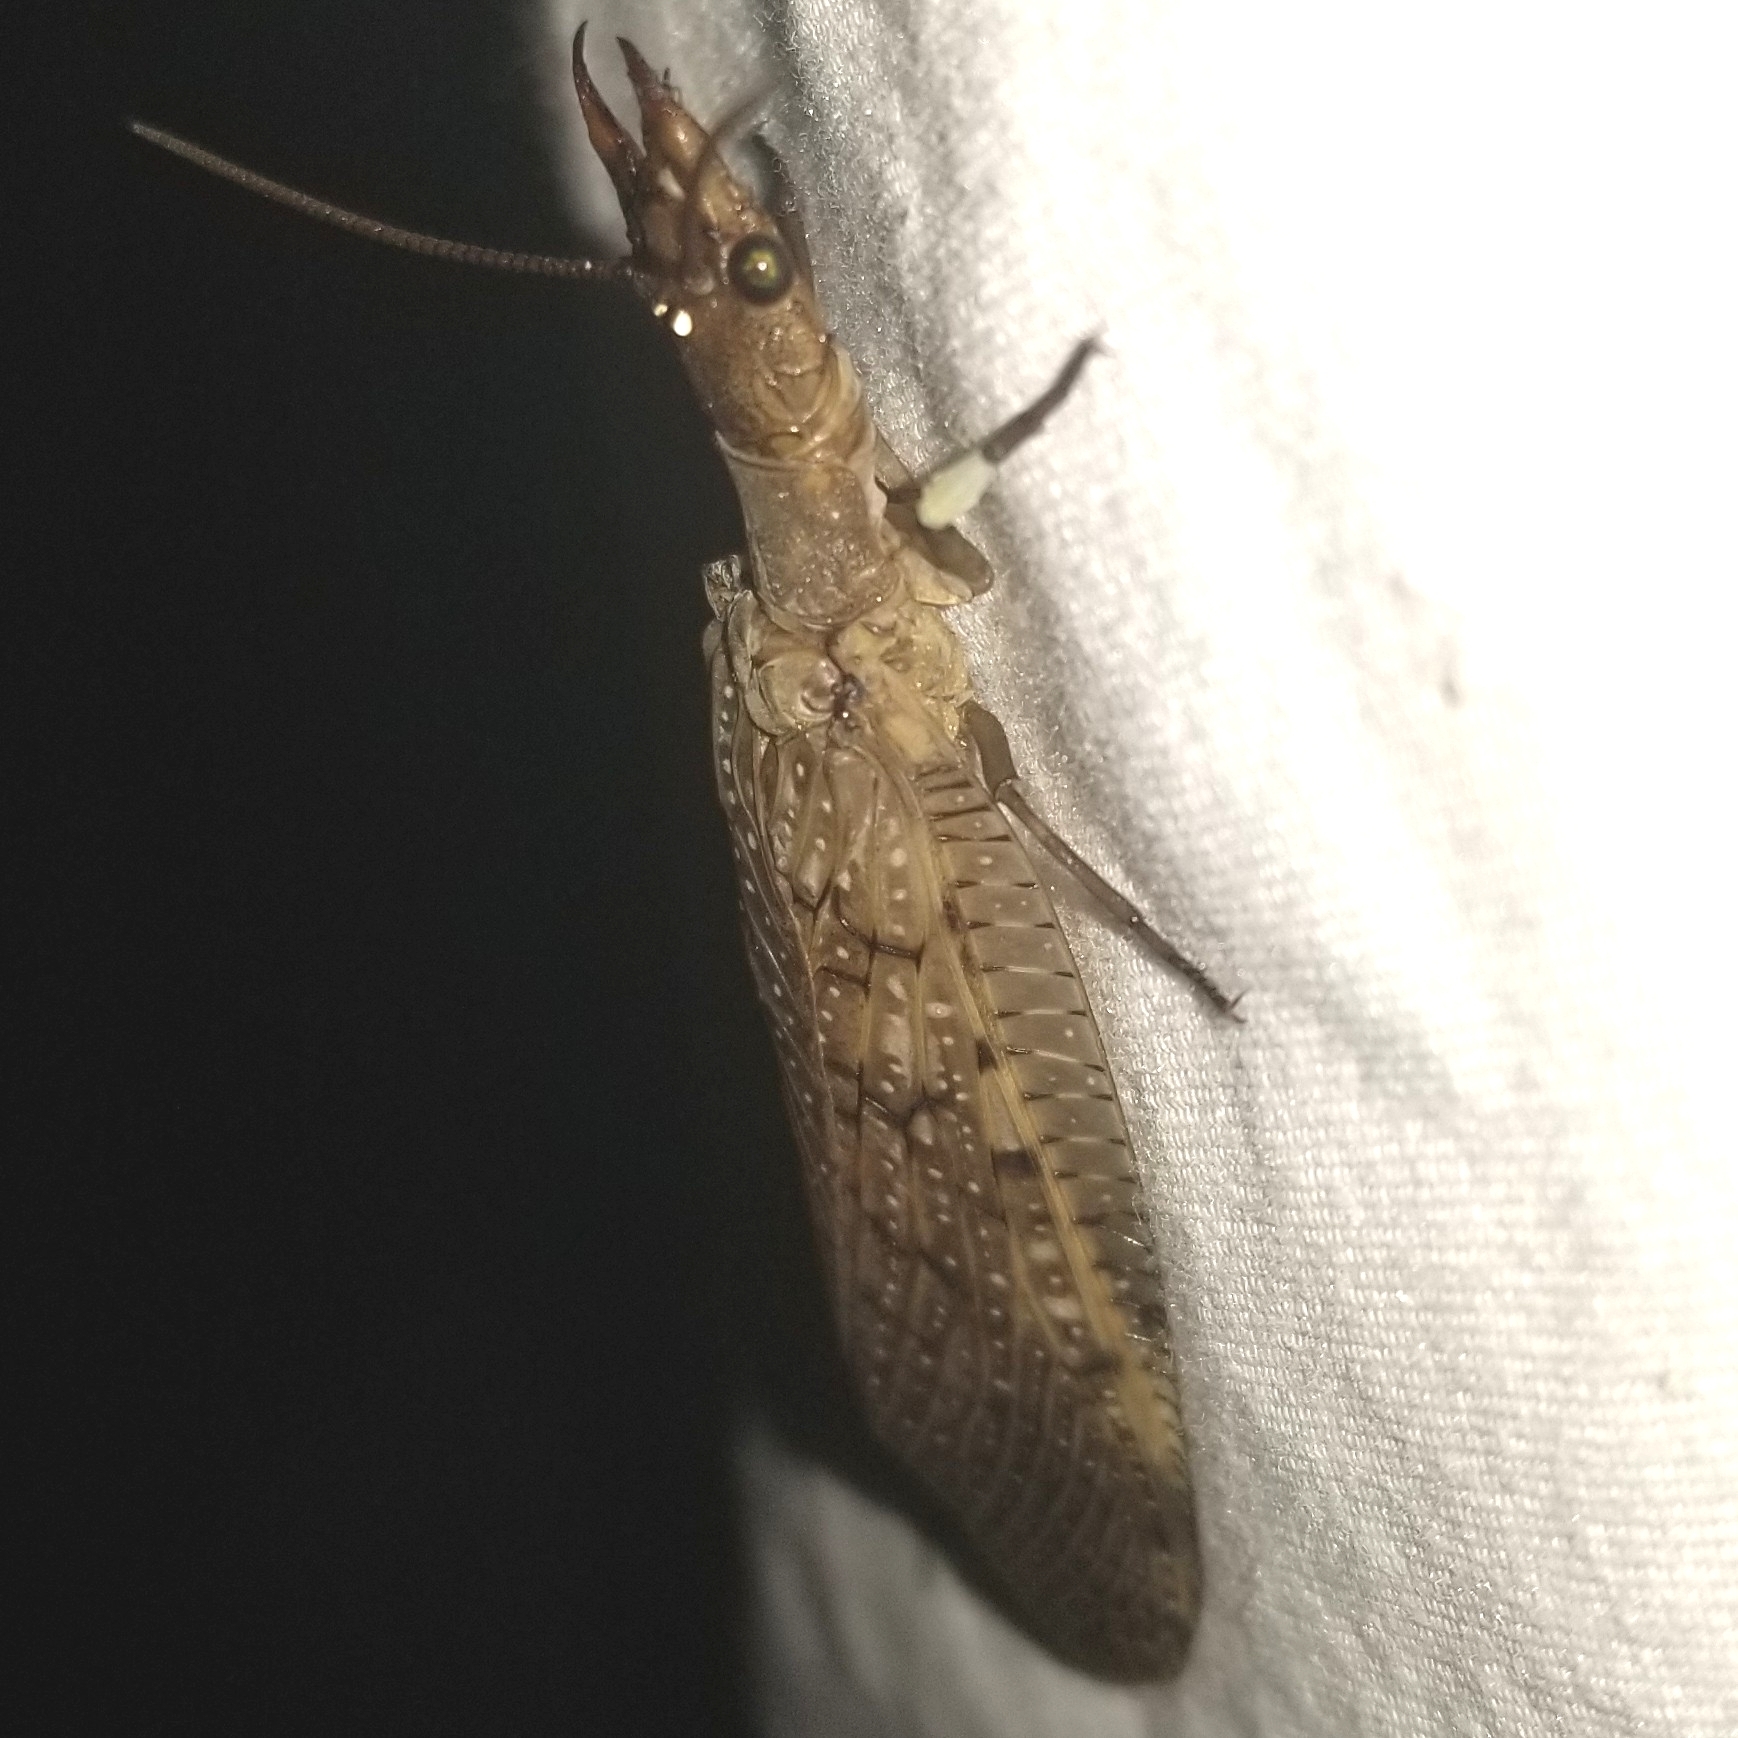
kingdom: Animalia
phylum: Arthropoda
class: Insecta
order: Megaloptera
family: Corydalidae
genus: Corydalus
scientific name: Corydalus cornutus
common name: Dobsonfly
